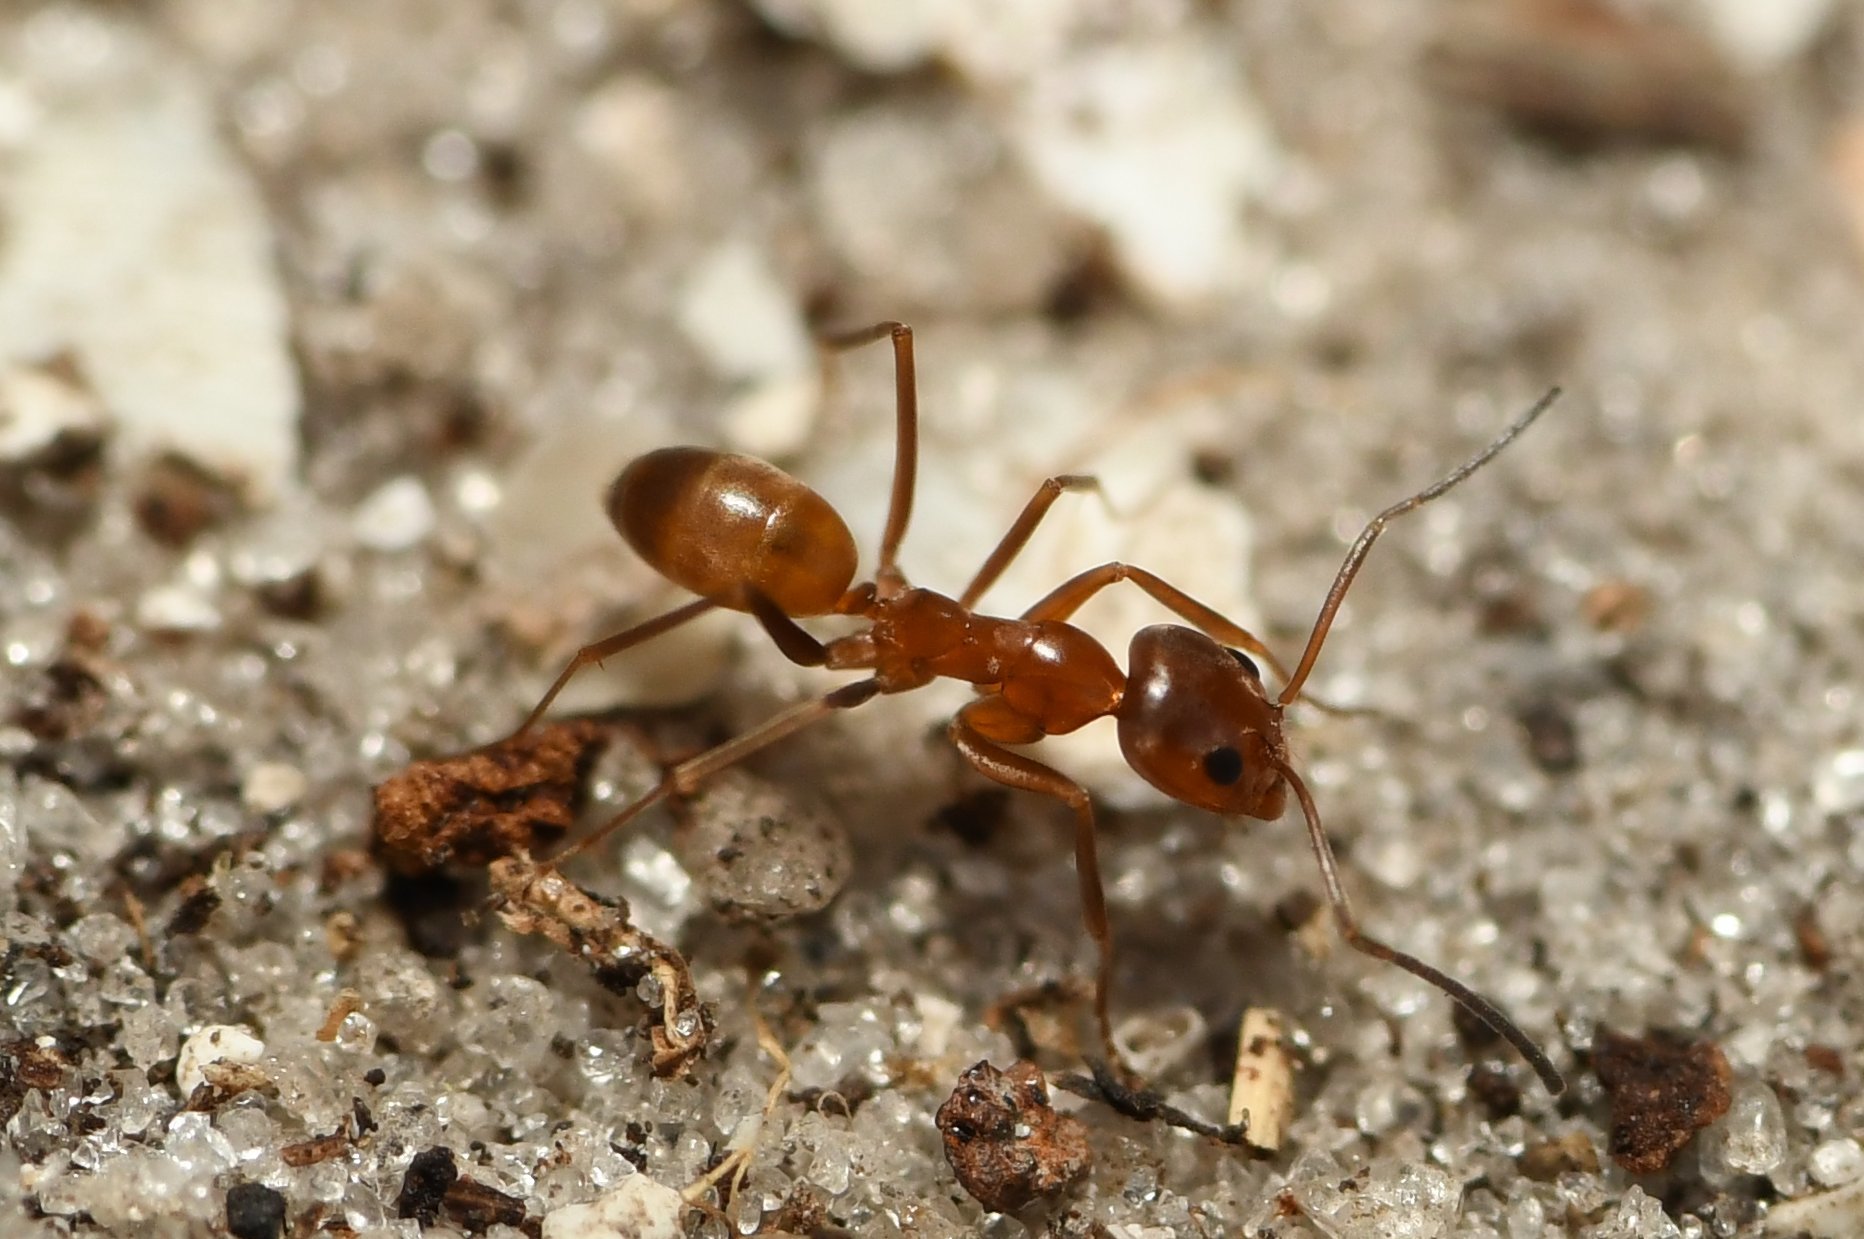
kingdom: Animalia
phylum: Arthropoda
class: Insecta
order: Hymenoptera
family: Formicidae
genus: Dorymyrmex
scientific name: Dorymyrmex bureni
